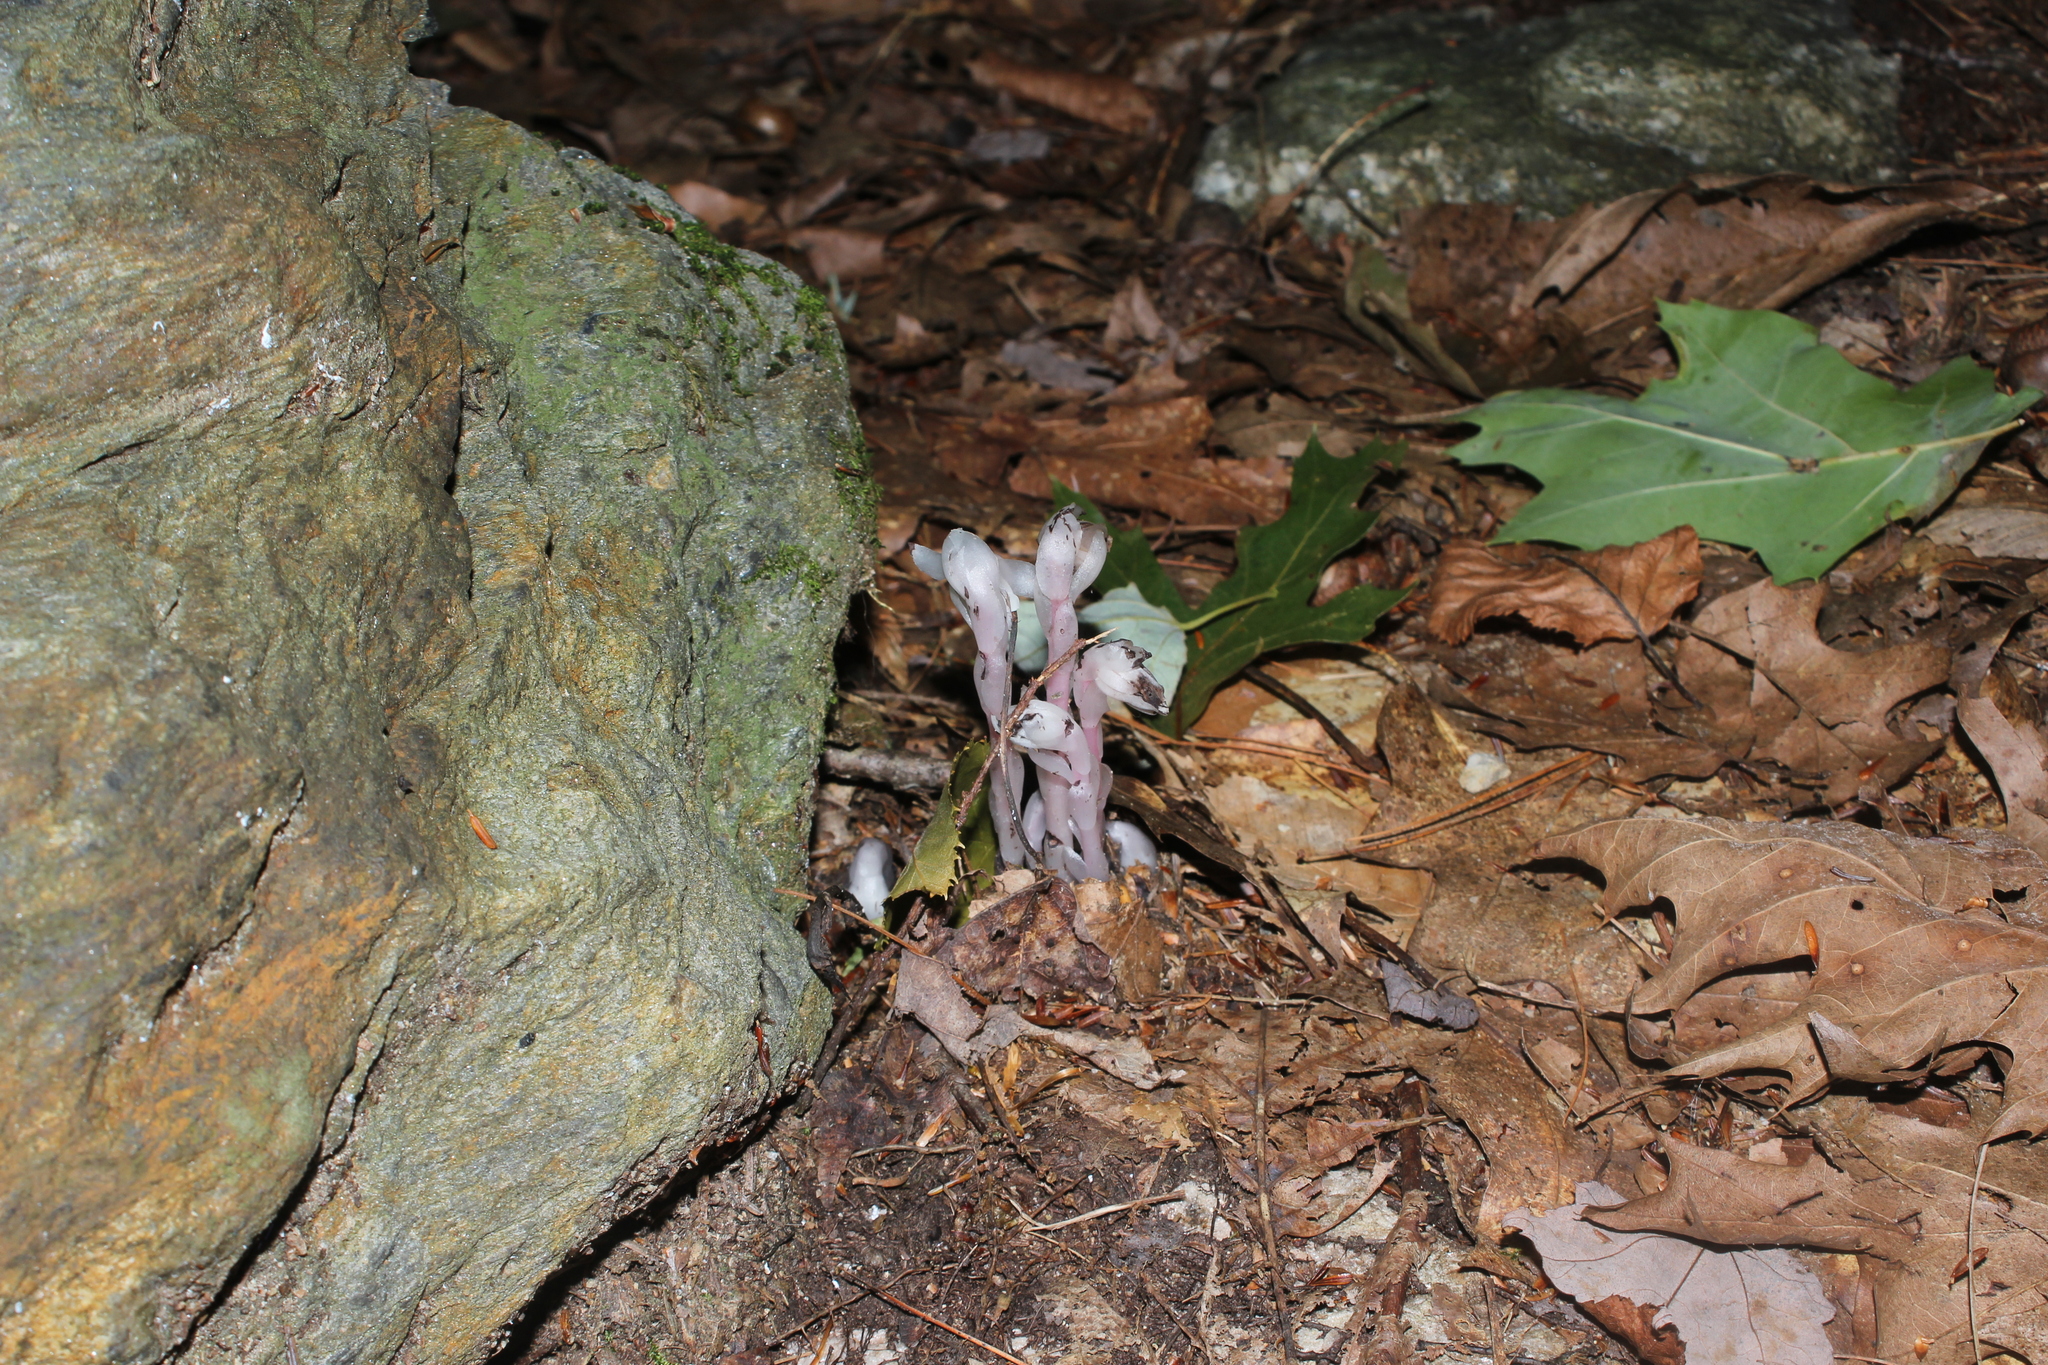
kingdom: Plantae
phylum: Tracheophyta
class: Magnoliopsida
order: Ericales
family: Ericaceae
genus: Monotropa
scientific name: Monotropa uniflora
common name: Convulsion root
